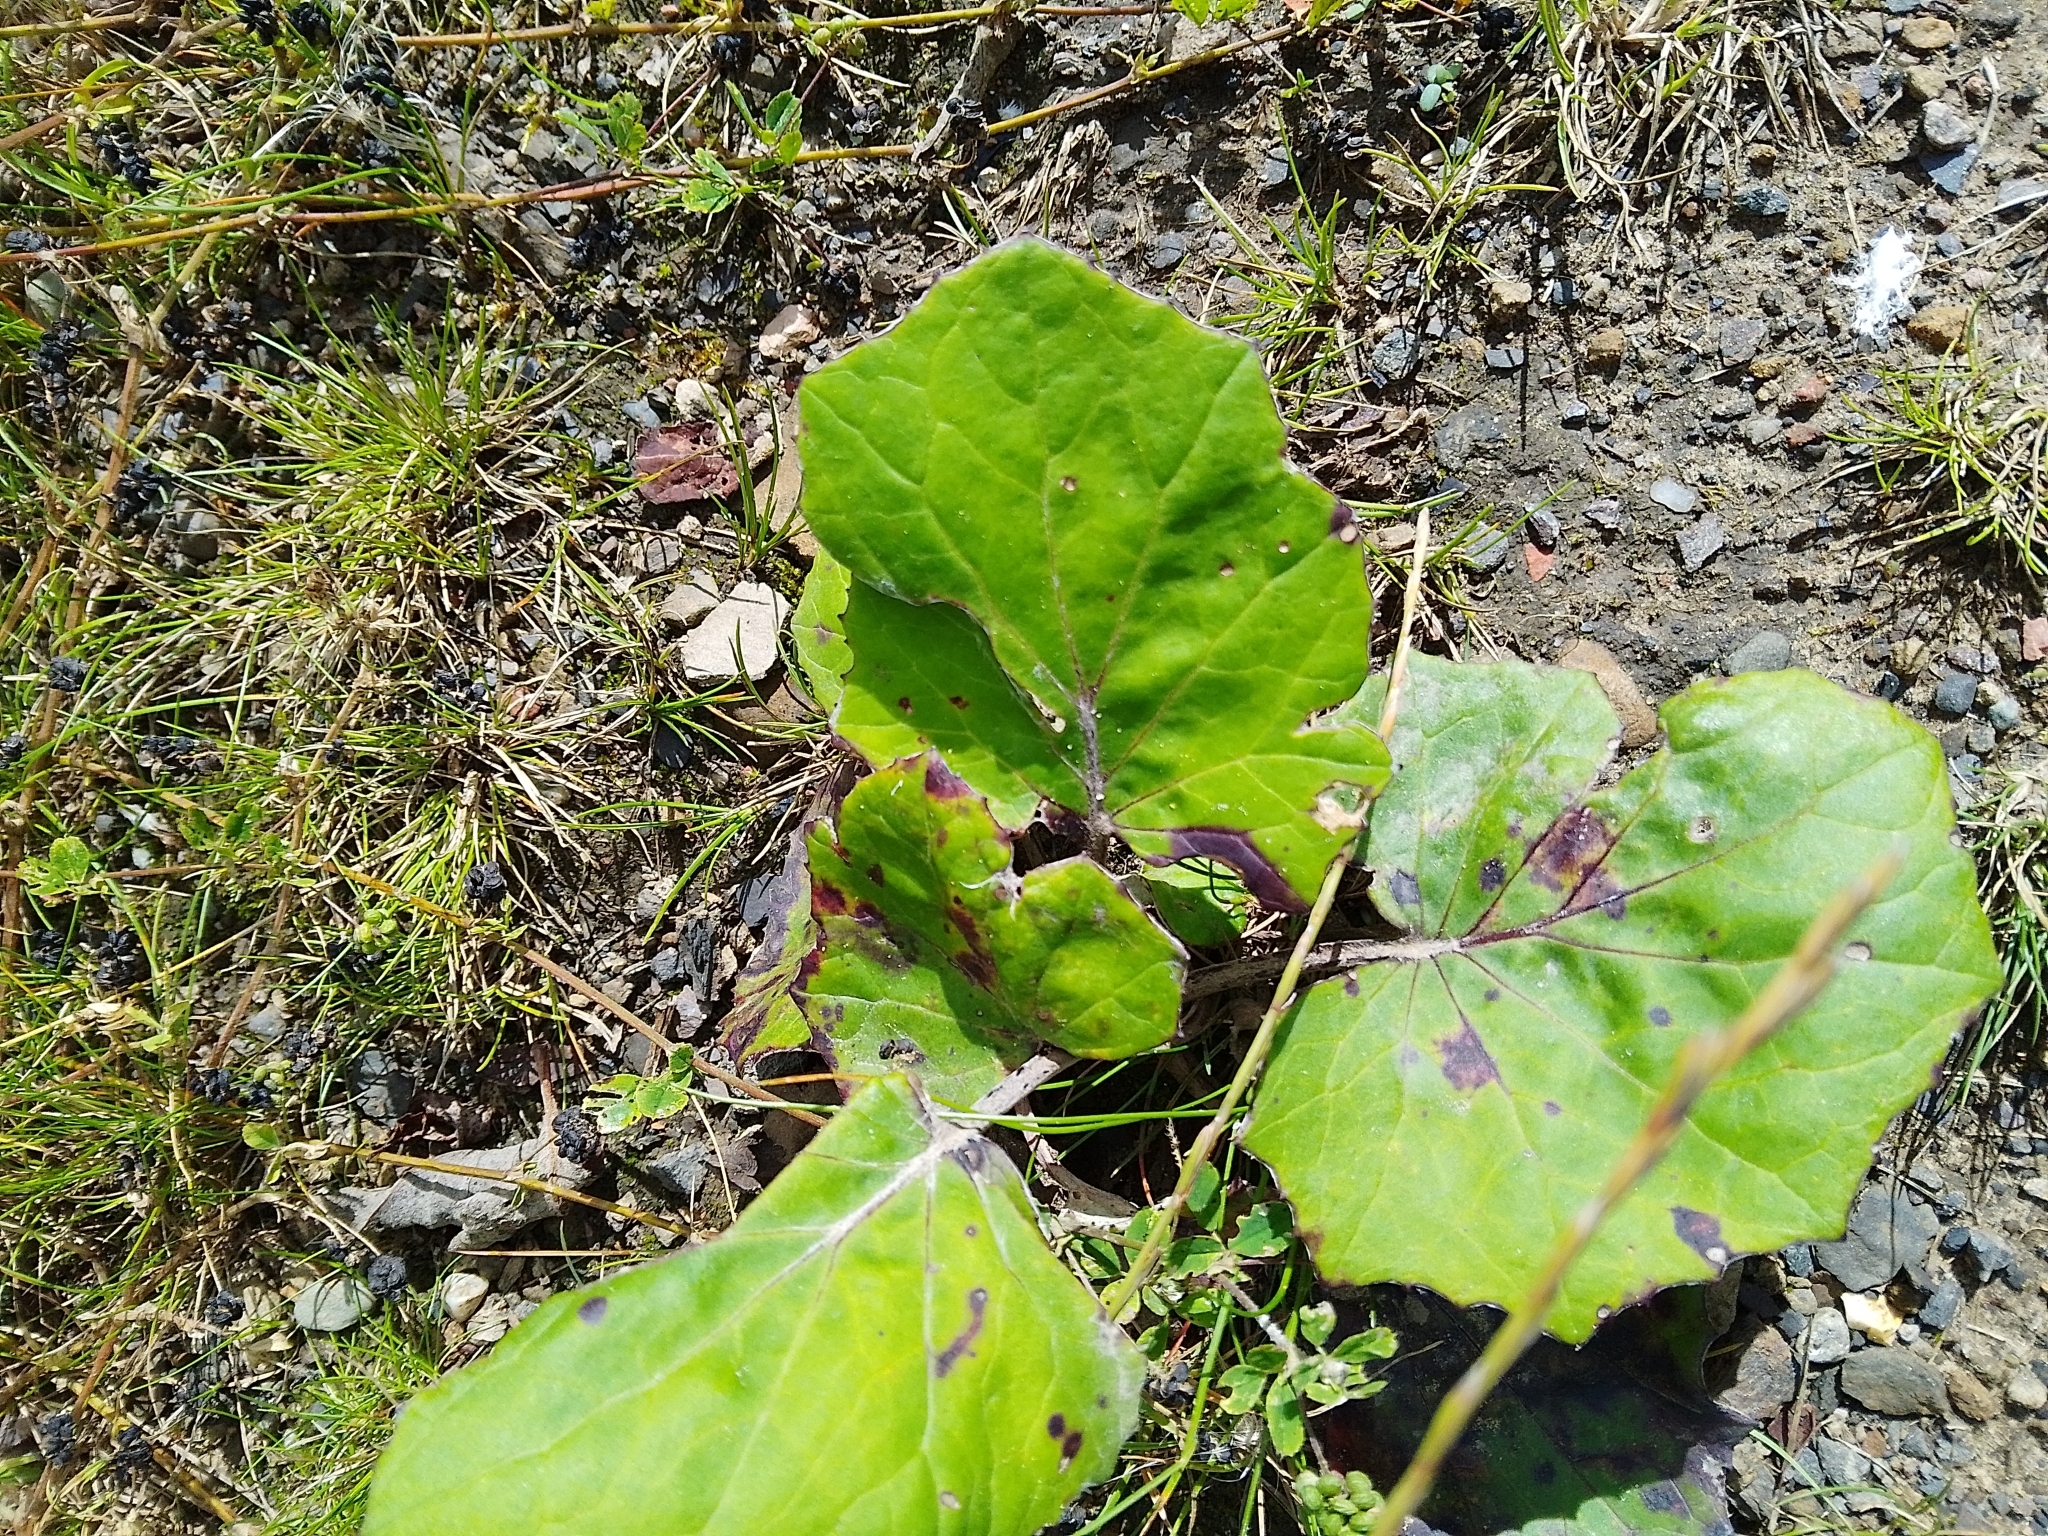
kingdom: Plantae
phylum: Tracheophyta
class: Magnoliopsida
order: Asterales
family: Asteraceae
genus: Tussilago
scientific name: Tussilago farfara
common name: Coltsfoot
